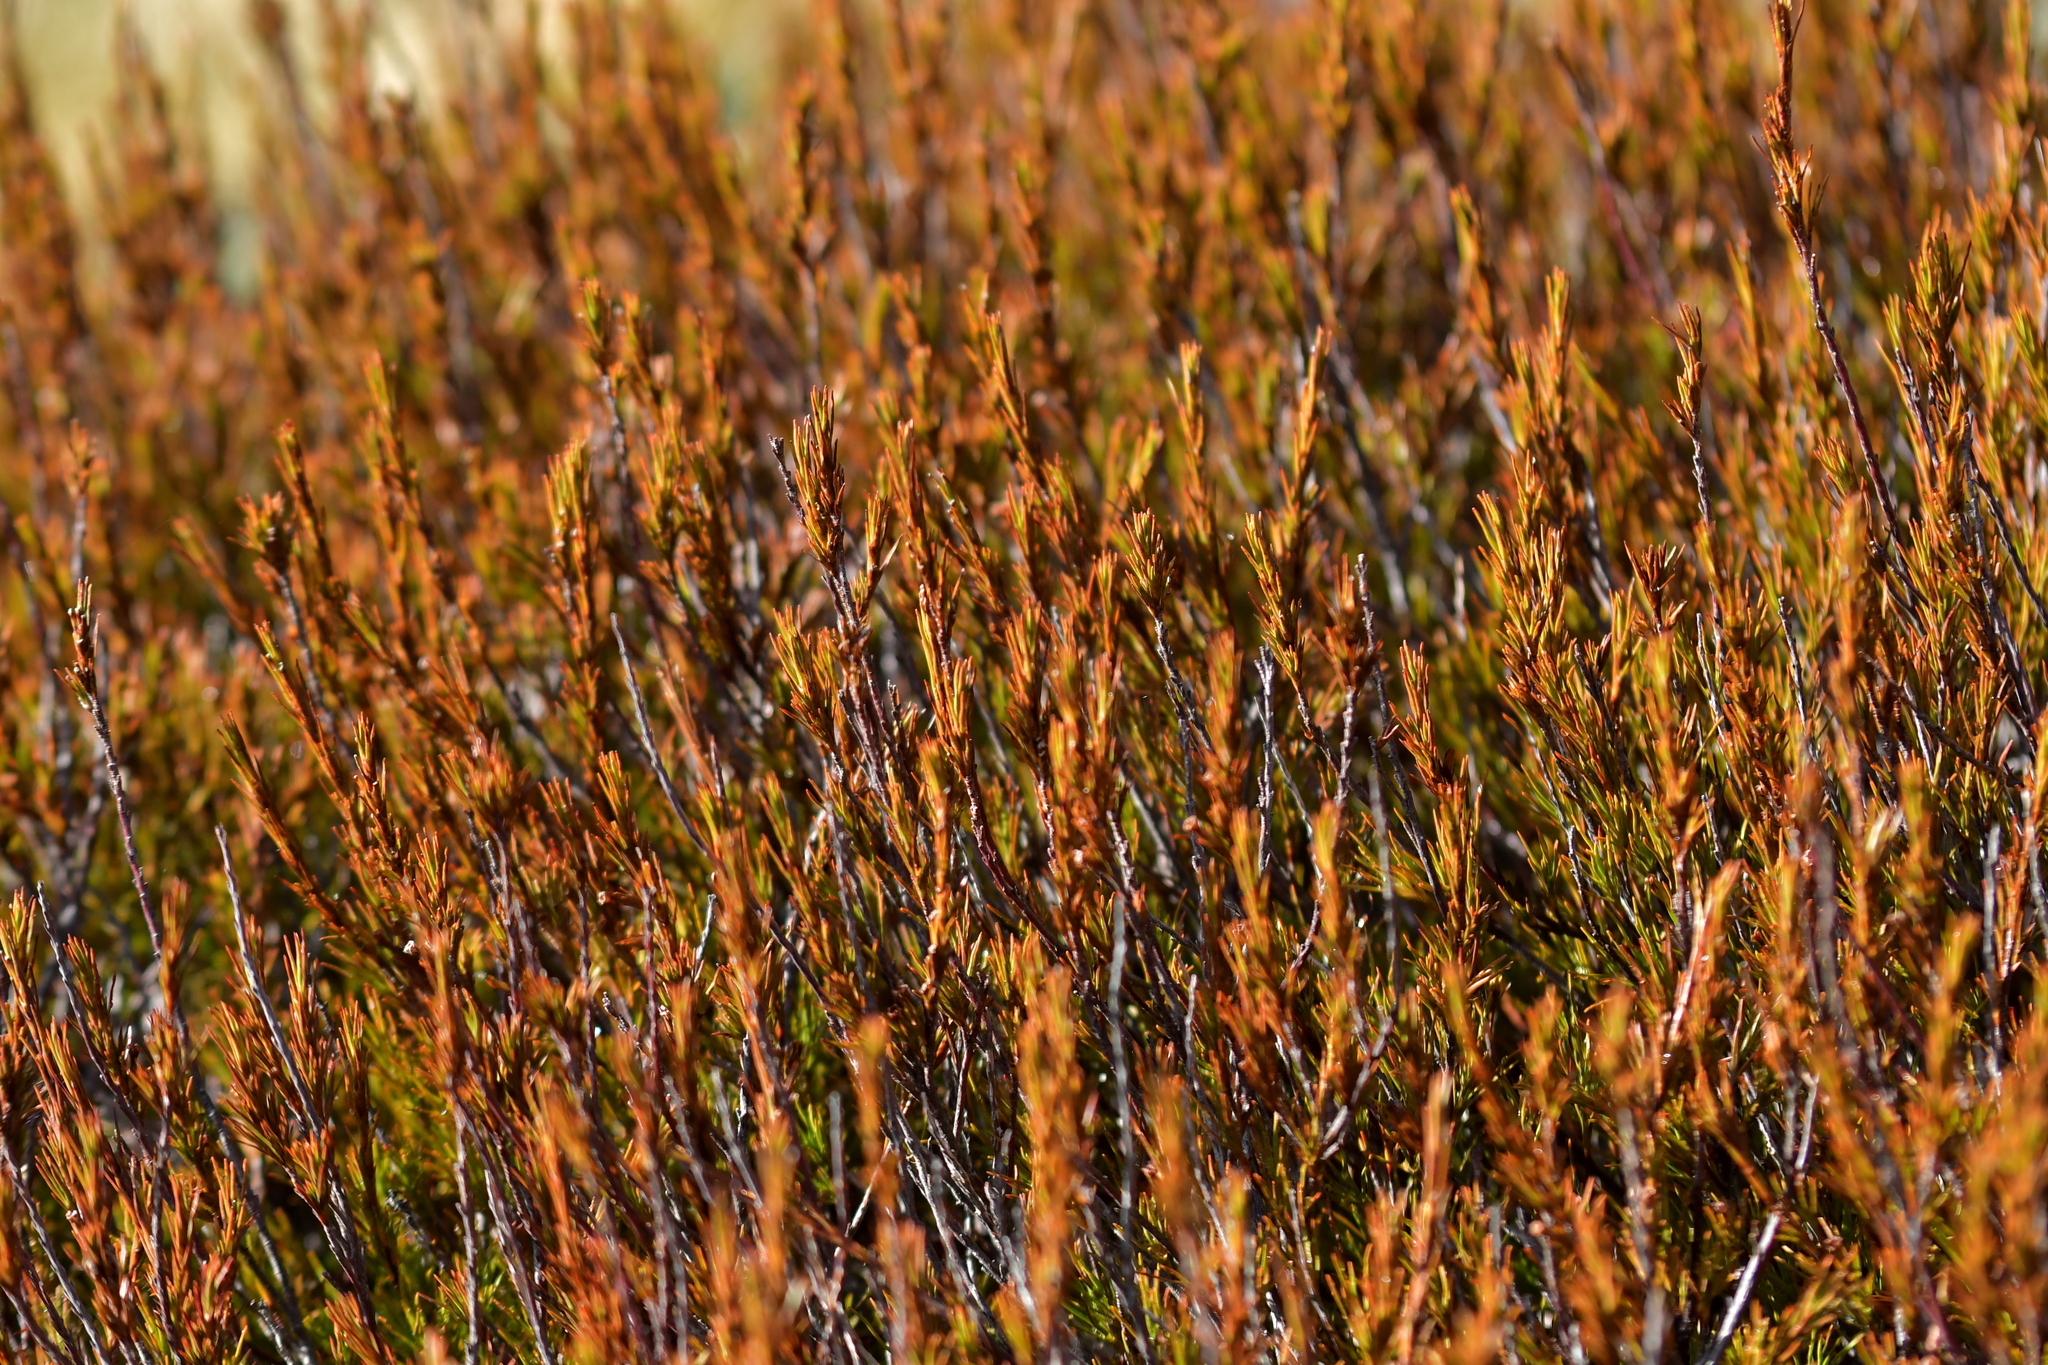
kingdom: Plantae
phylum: Tracheophyta
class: Magnoliopsida
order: Ericales
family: Ericaceae
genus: Dracophyllum
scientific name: Dracophyllum rosmarinifolium
